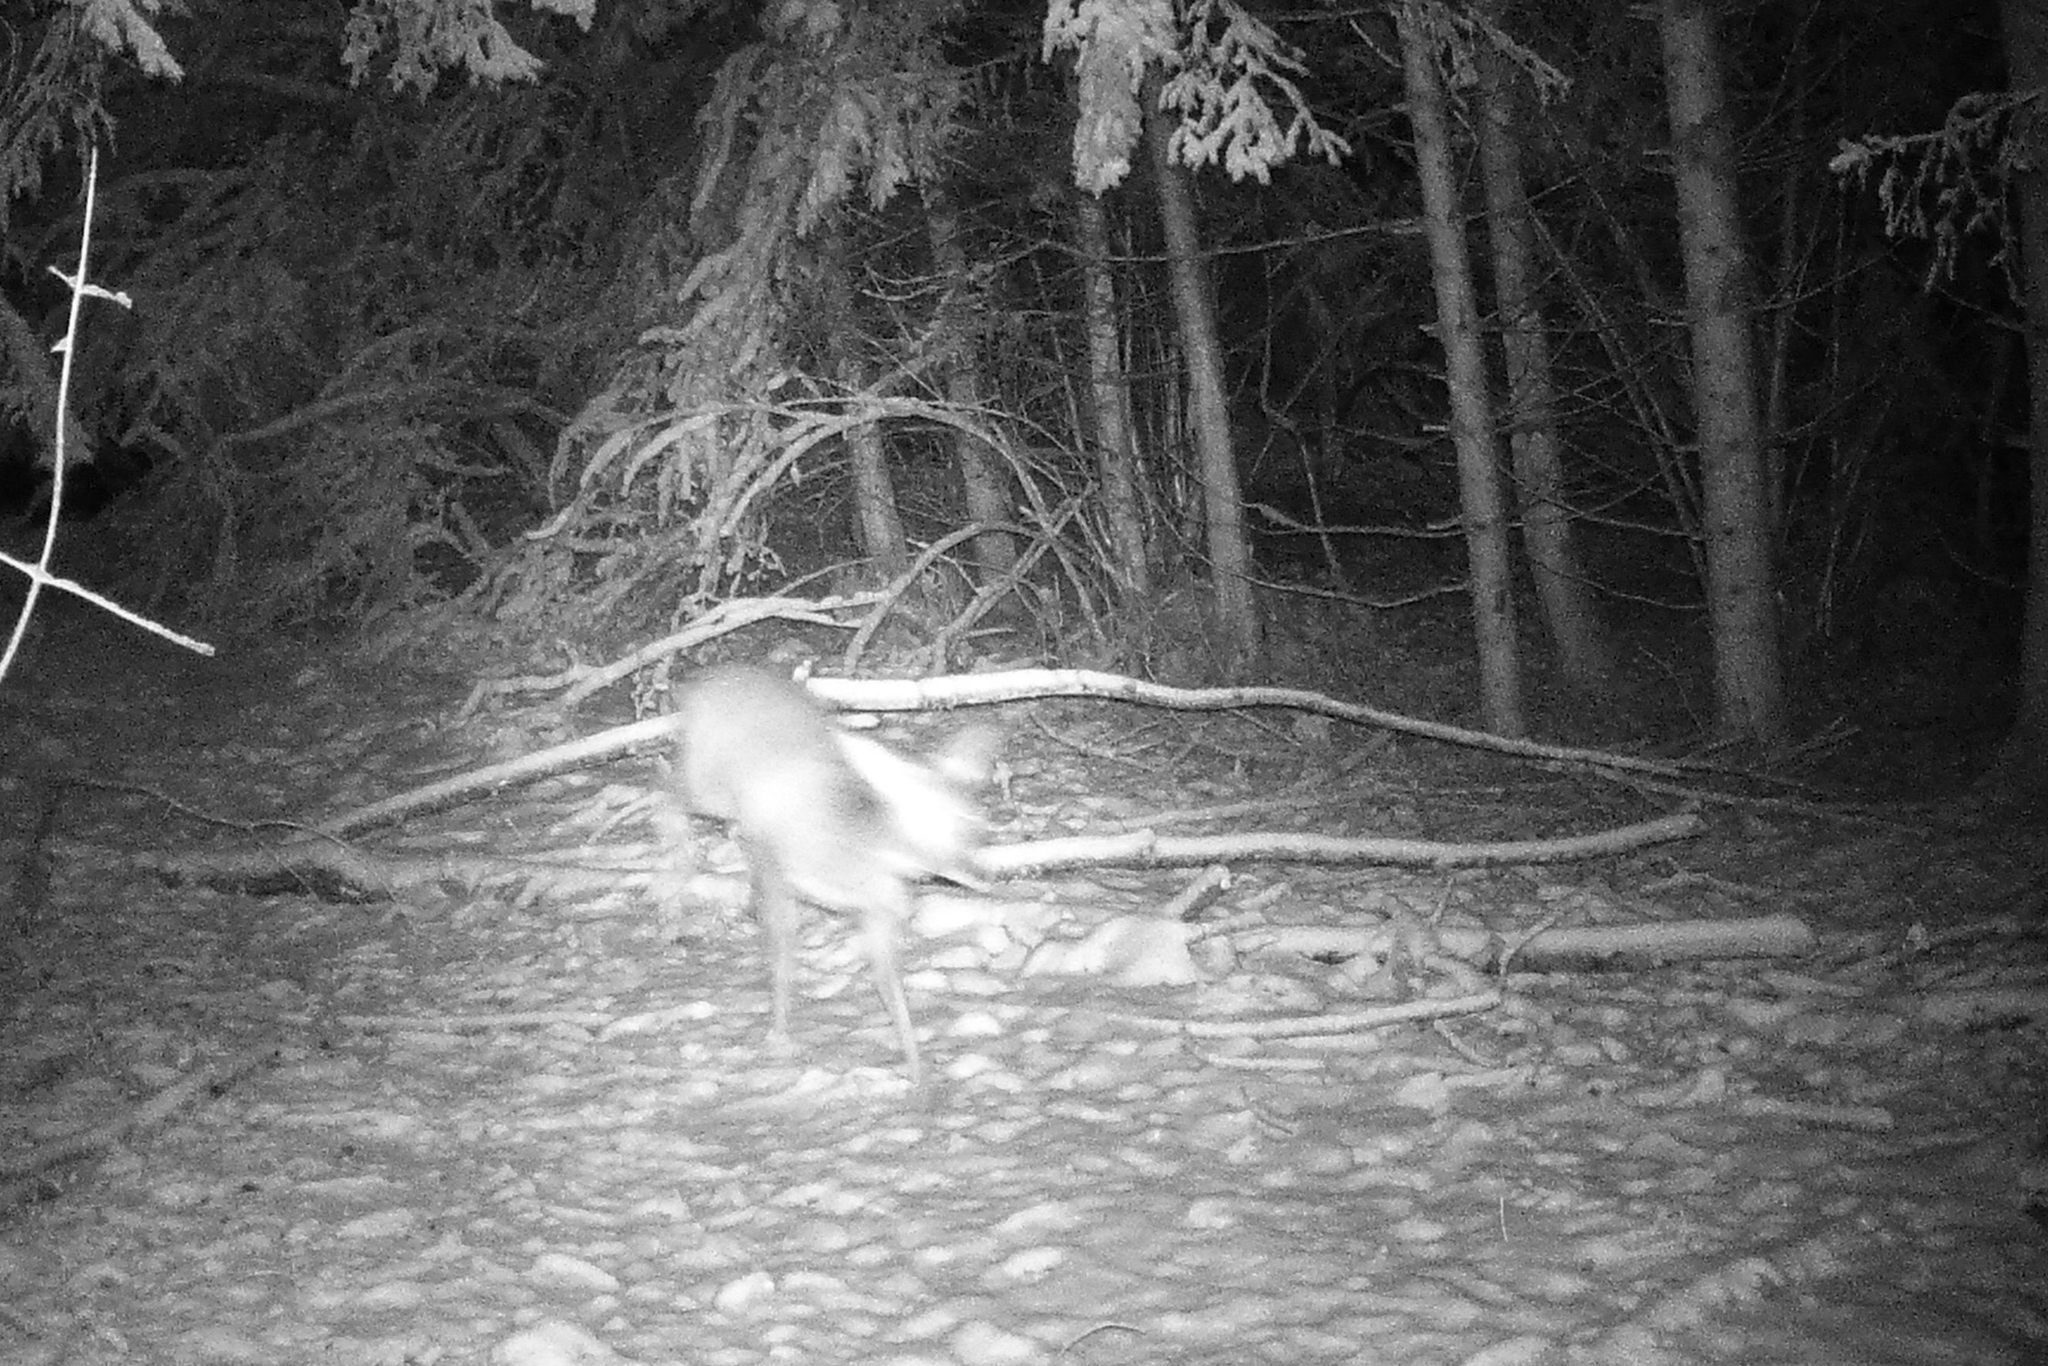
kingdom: Animalia
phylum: Chordata
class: Mammalia
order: Artiodactyla
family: Cervidae
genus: Capreolus
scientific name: Capreolus capreolus
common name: Western roe deer
